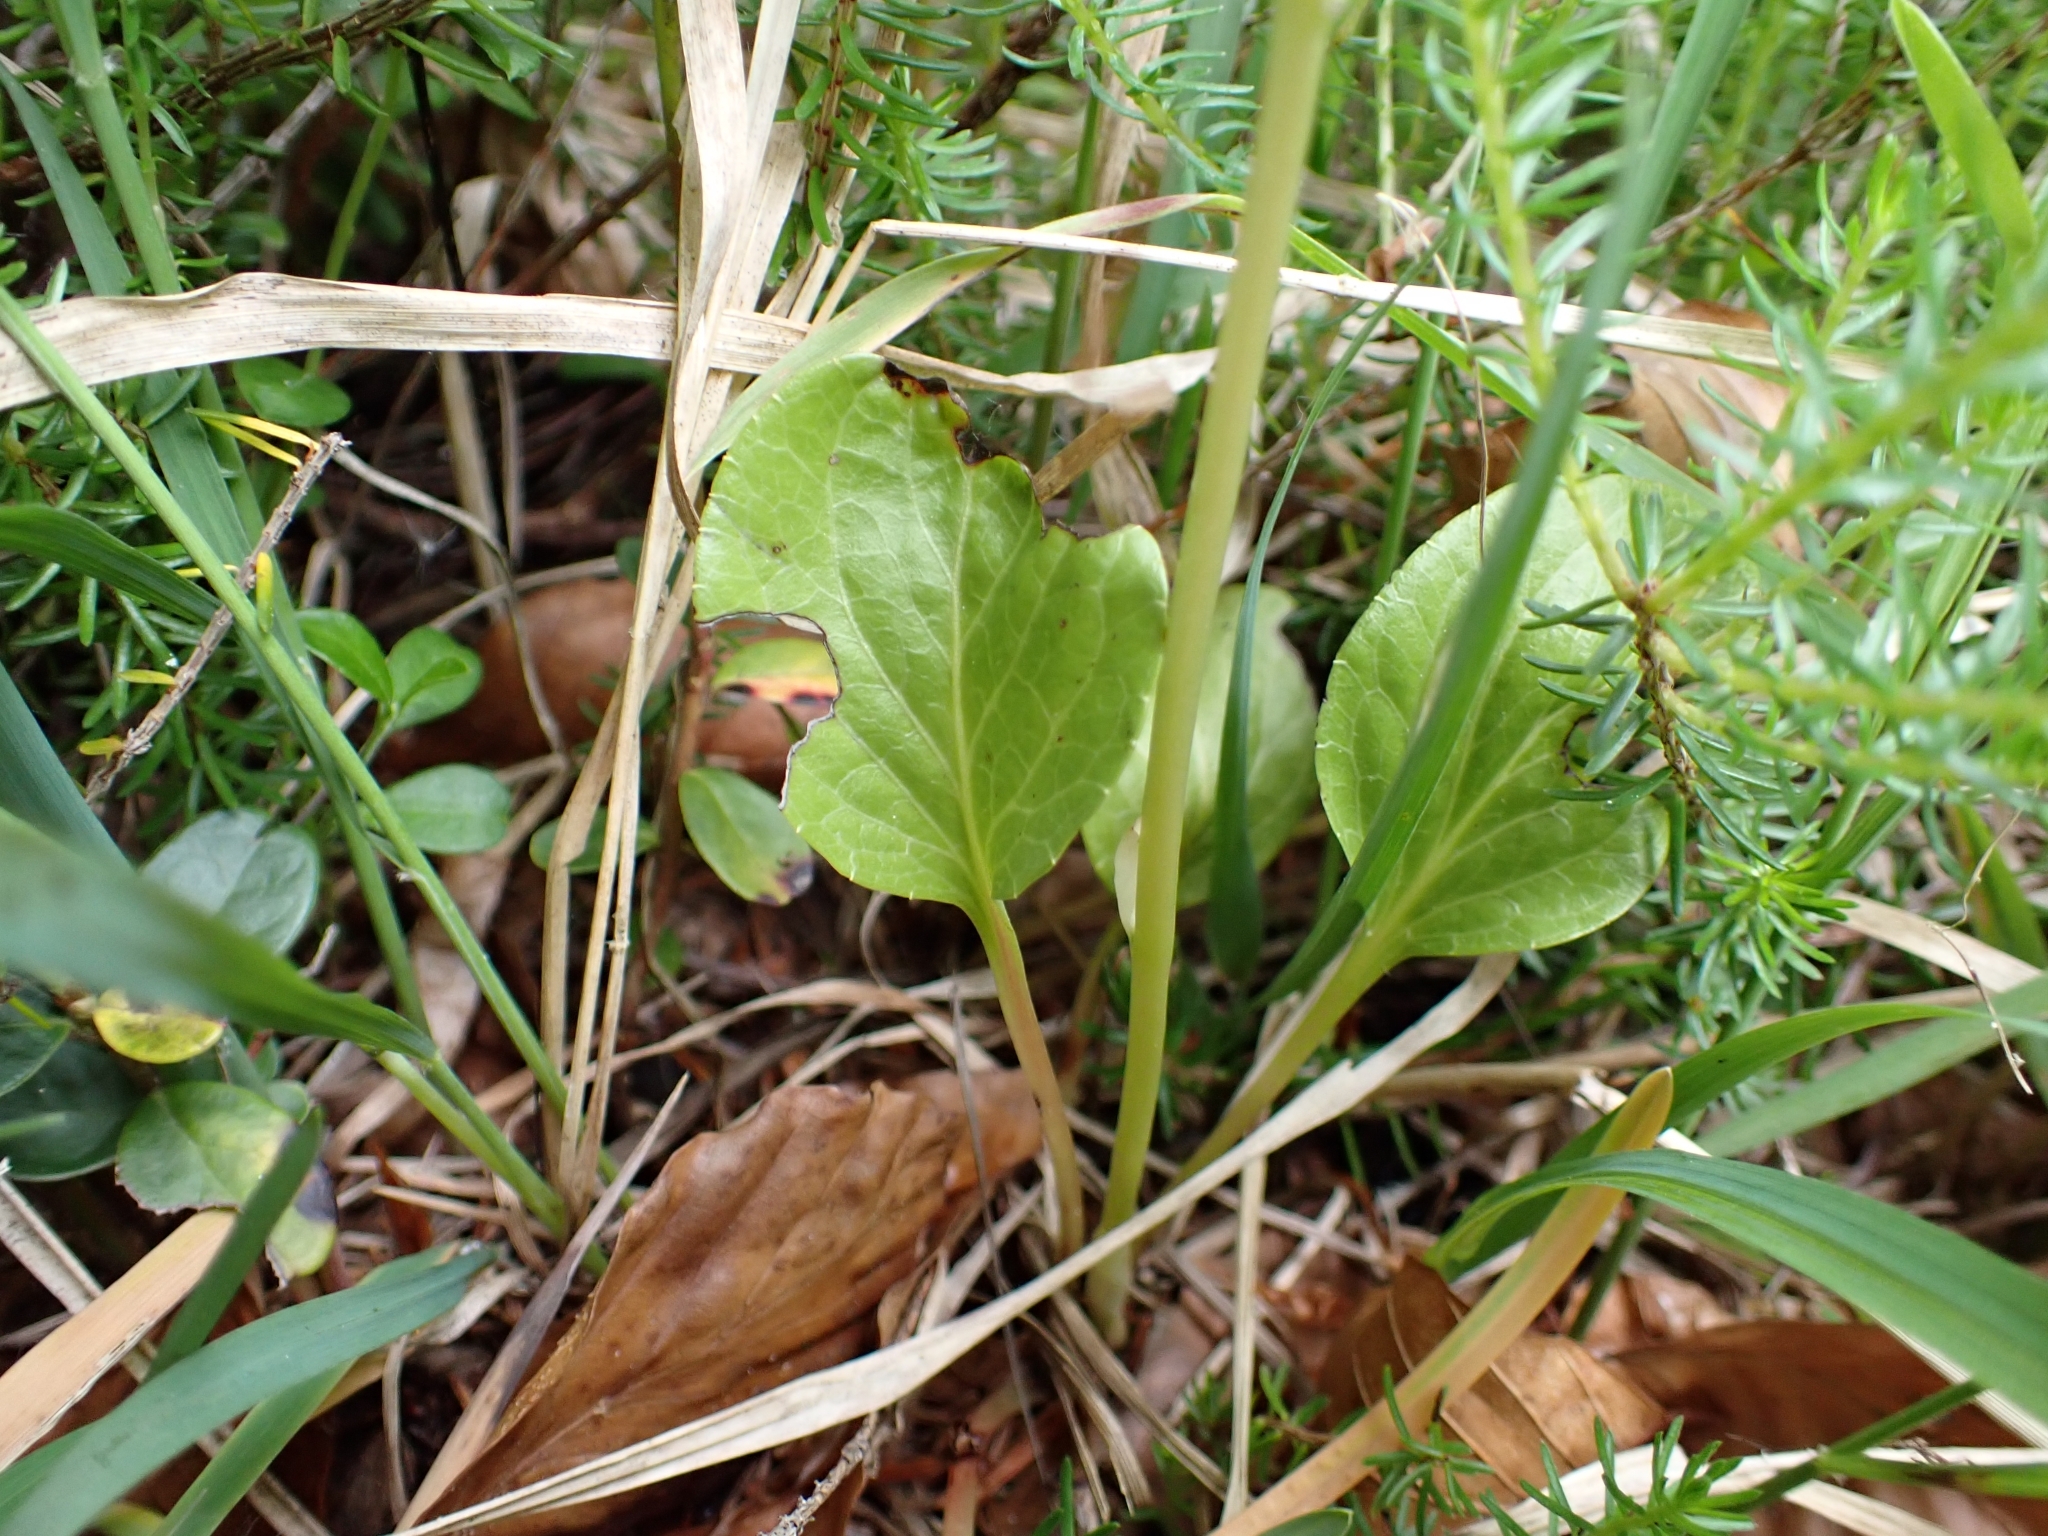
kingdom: Plantae
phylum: Tracheophyta
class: Magnoliopsida
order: Ericales
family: Ericaceae
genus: Pyrola
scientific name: Pyrola rotundifolia
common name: Round-leaved wintergreen
